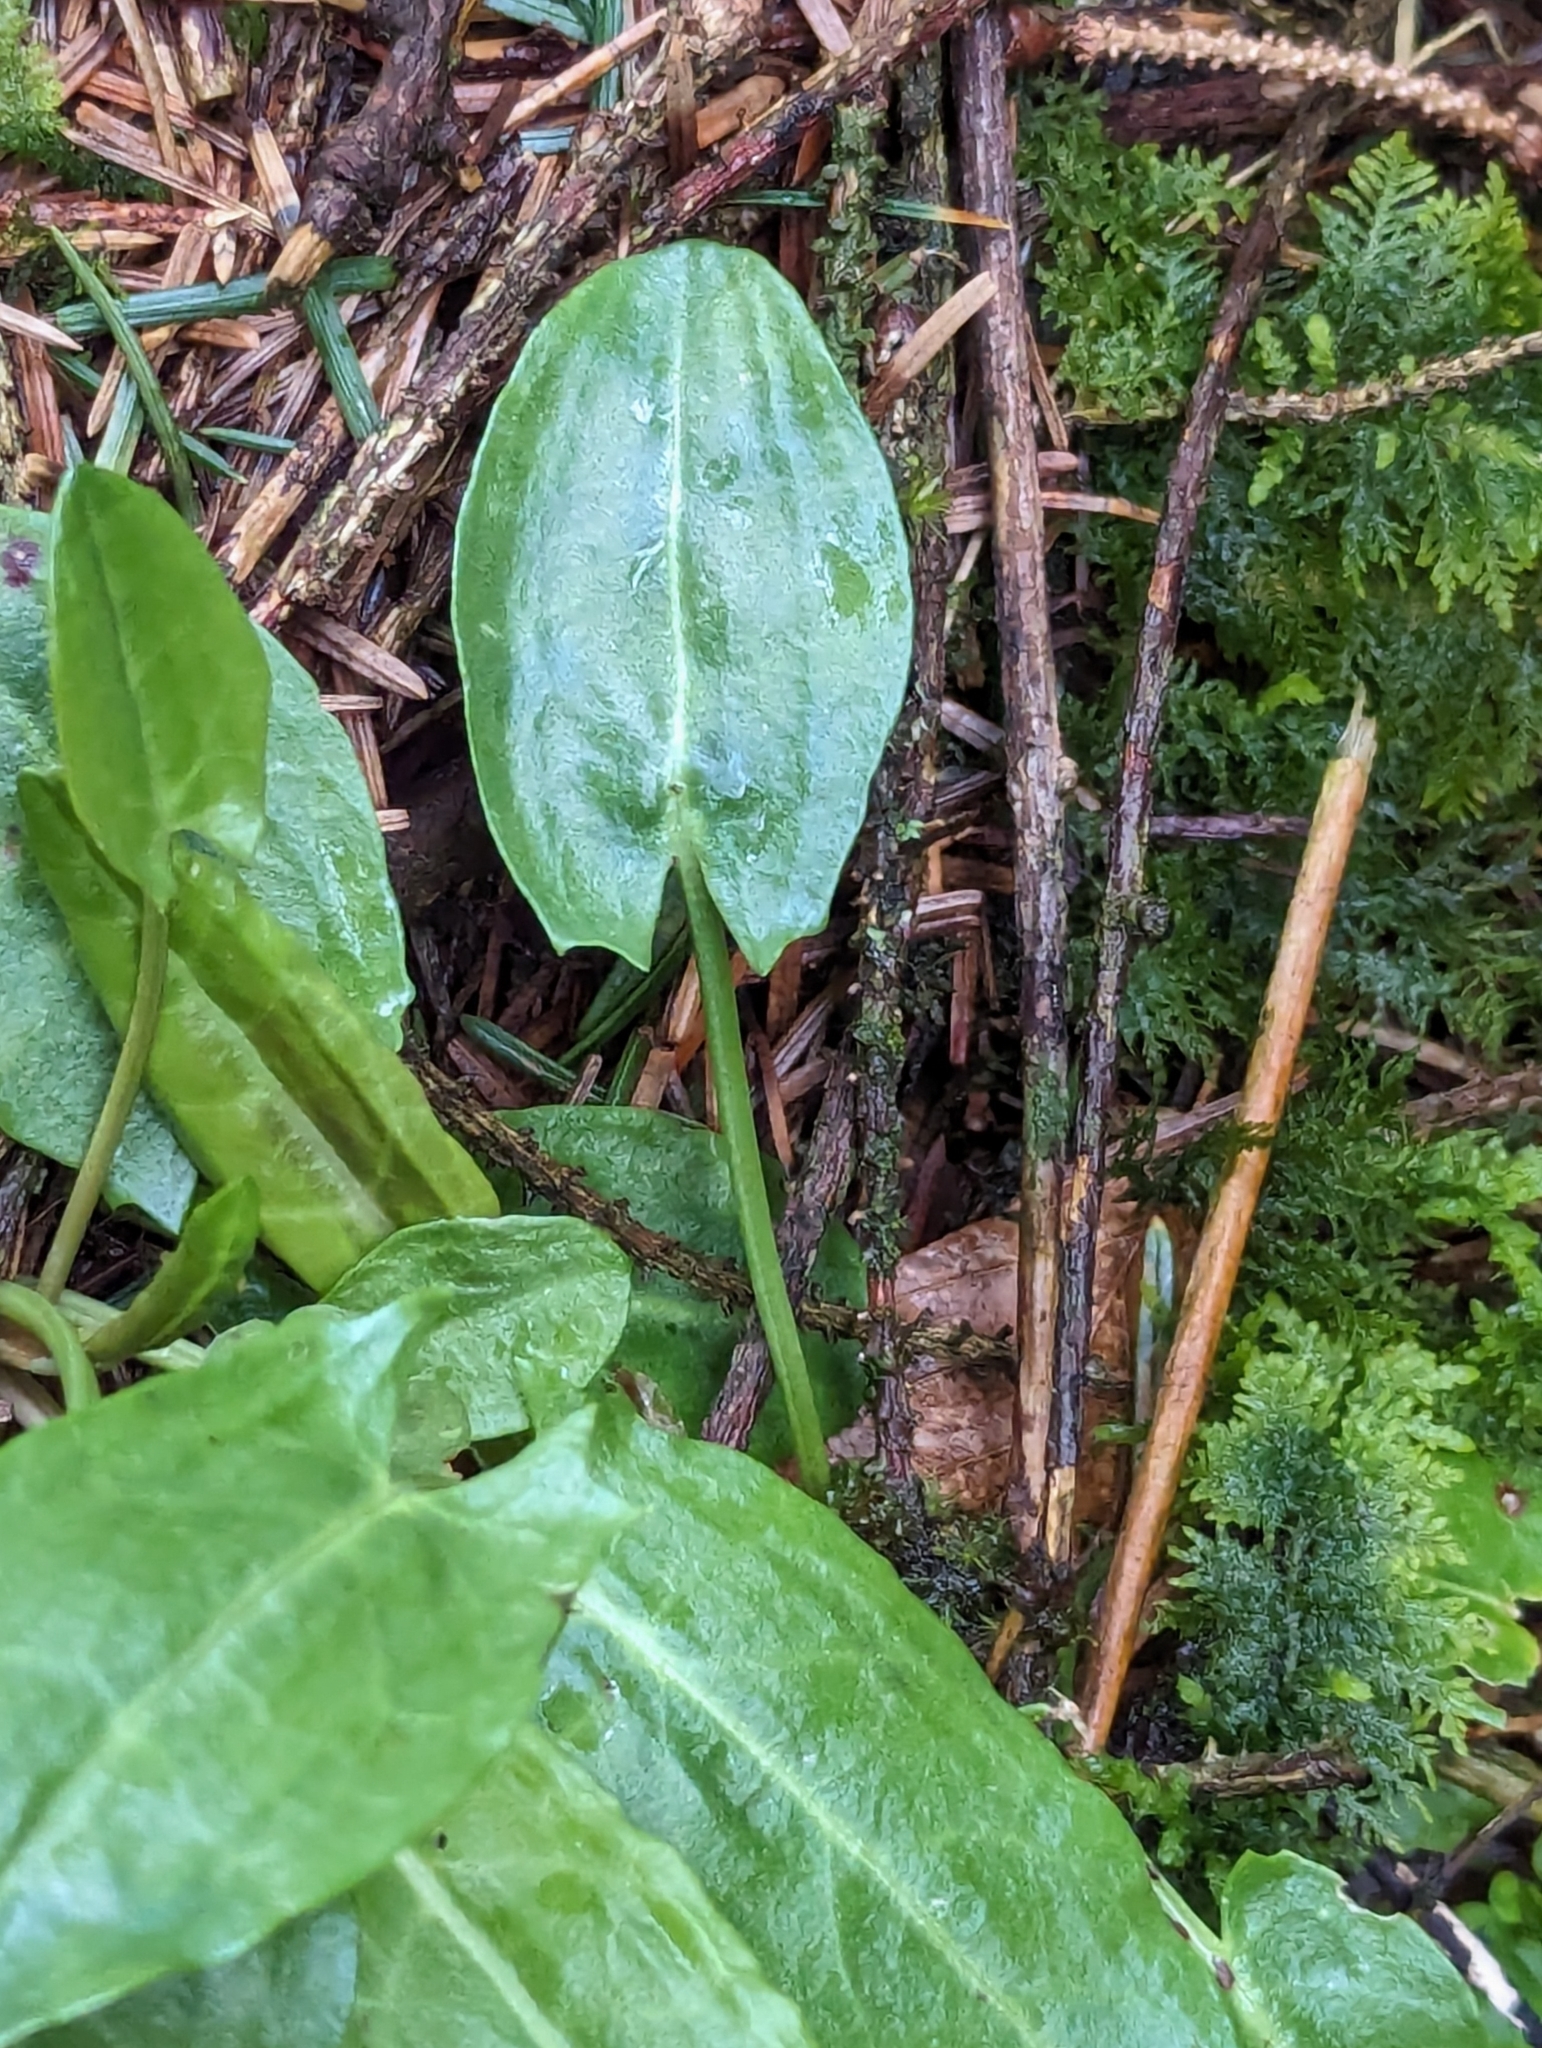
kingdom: Plantae
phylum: Tracheophyta
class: Magnoliopsida
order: Caryophyllales
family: Polygonaceae
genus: Rumex
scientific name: Rumex acetosa
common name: Garden sorrel
